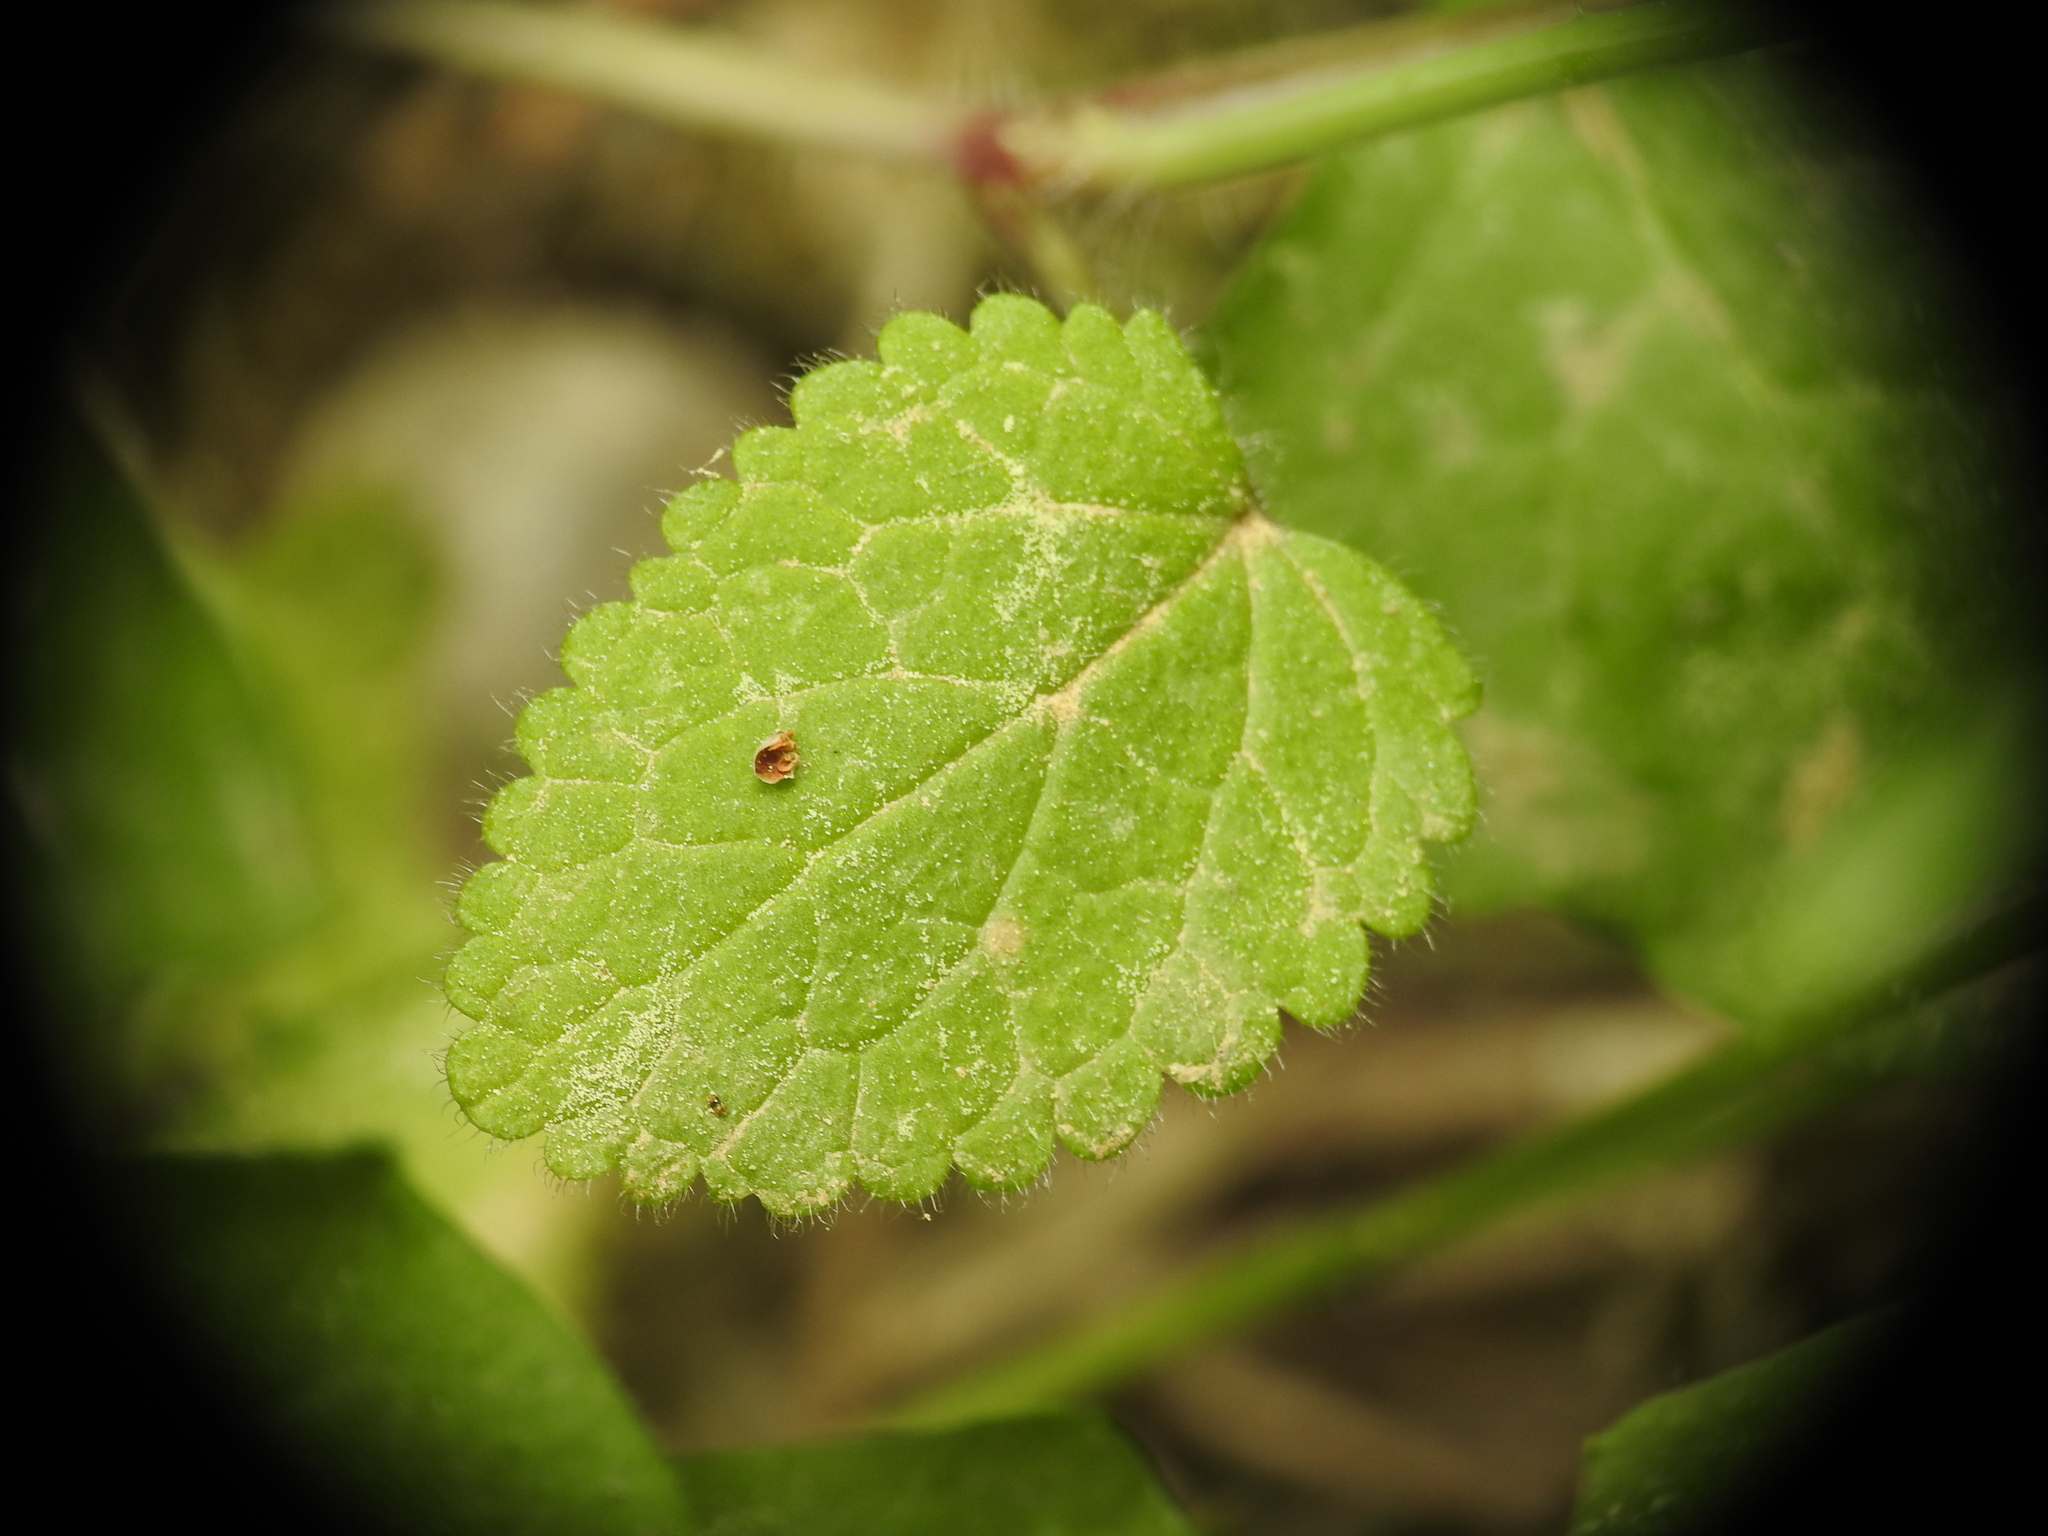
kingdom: Plantae
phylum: Tracheophyta
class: Magnoliopsida
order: Lamiales
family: Lamiaceae
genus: Stachys
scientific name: Stachys spinulosa
